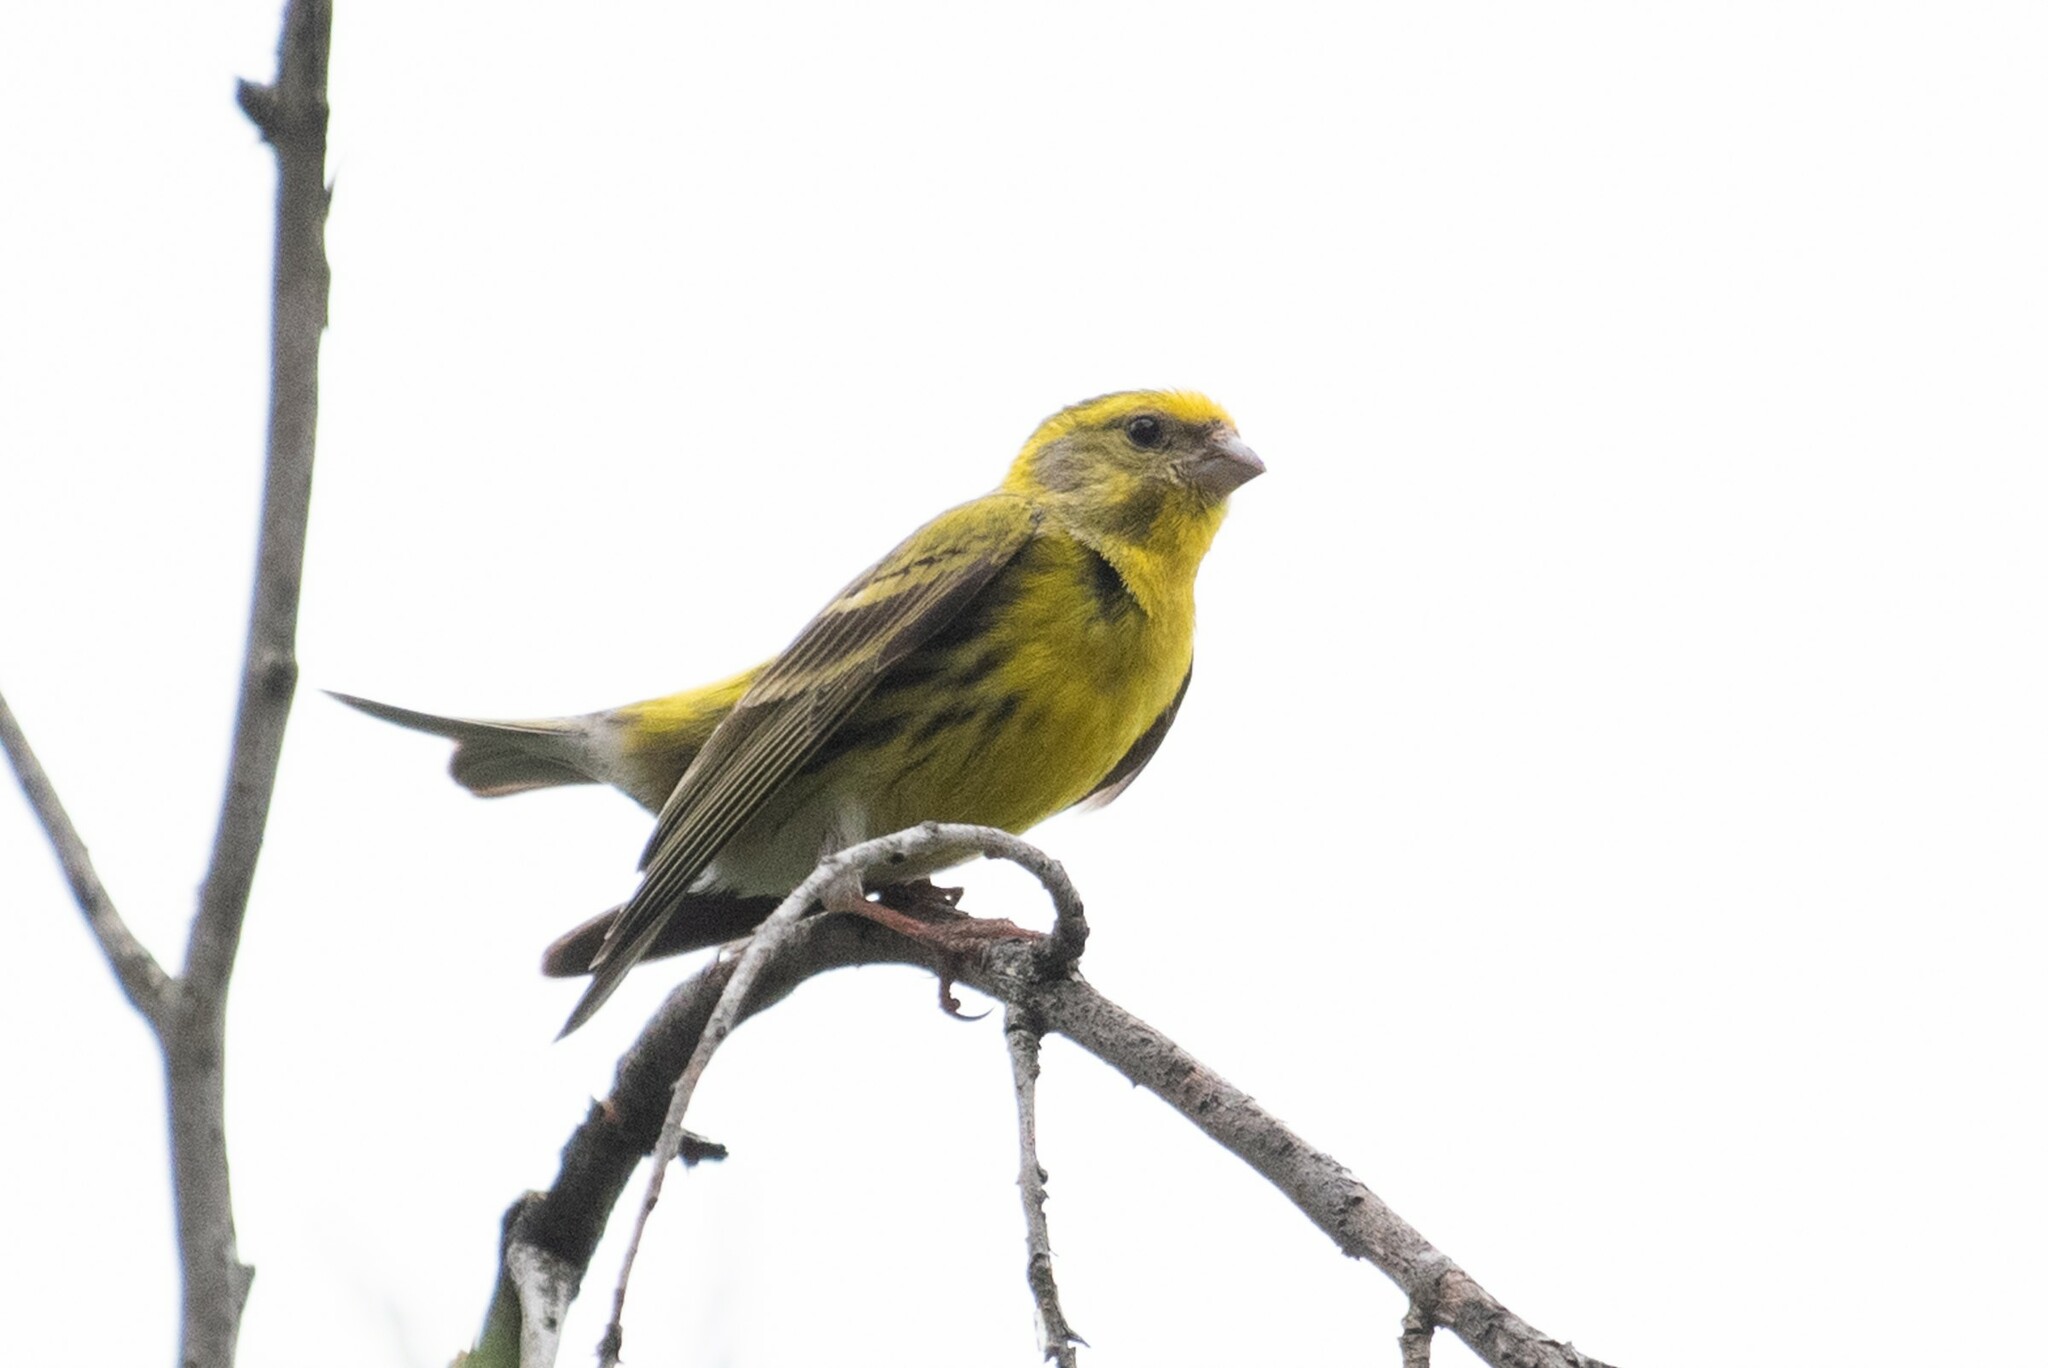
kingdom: Animalia
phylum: Chordata
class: Aves
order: Passeriformes
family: Fringillidae
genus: Serinus
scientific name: Serinus serinus
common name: European serin
